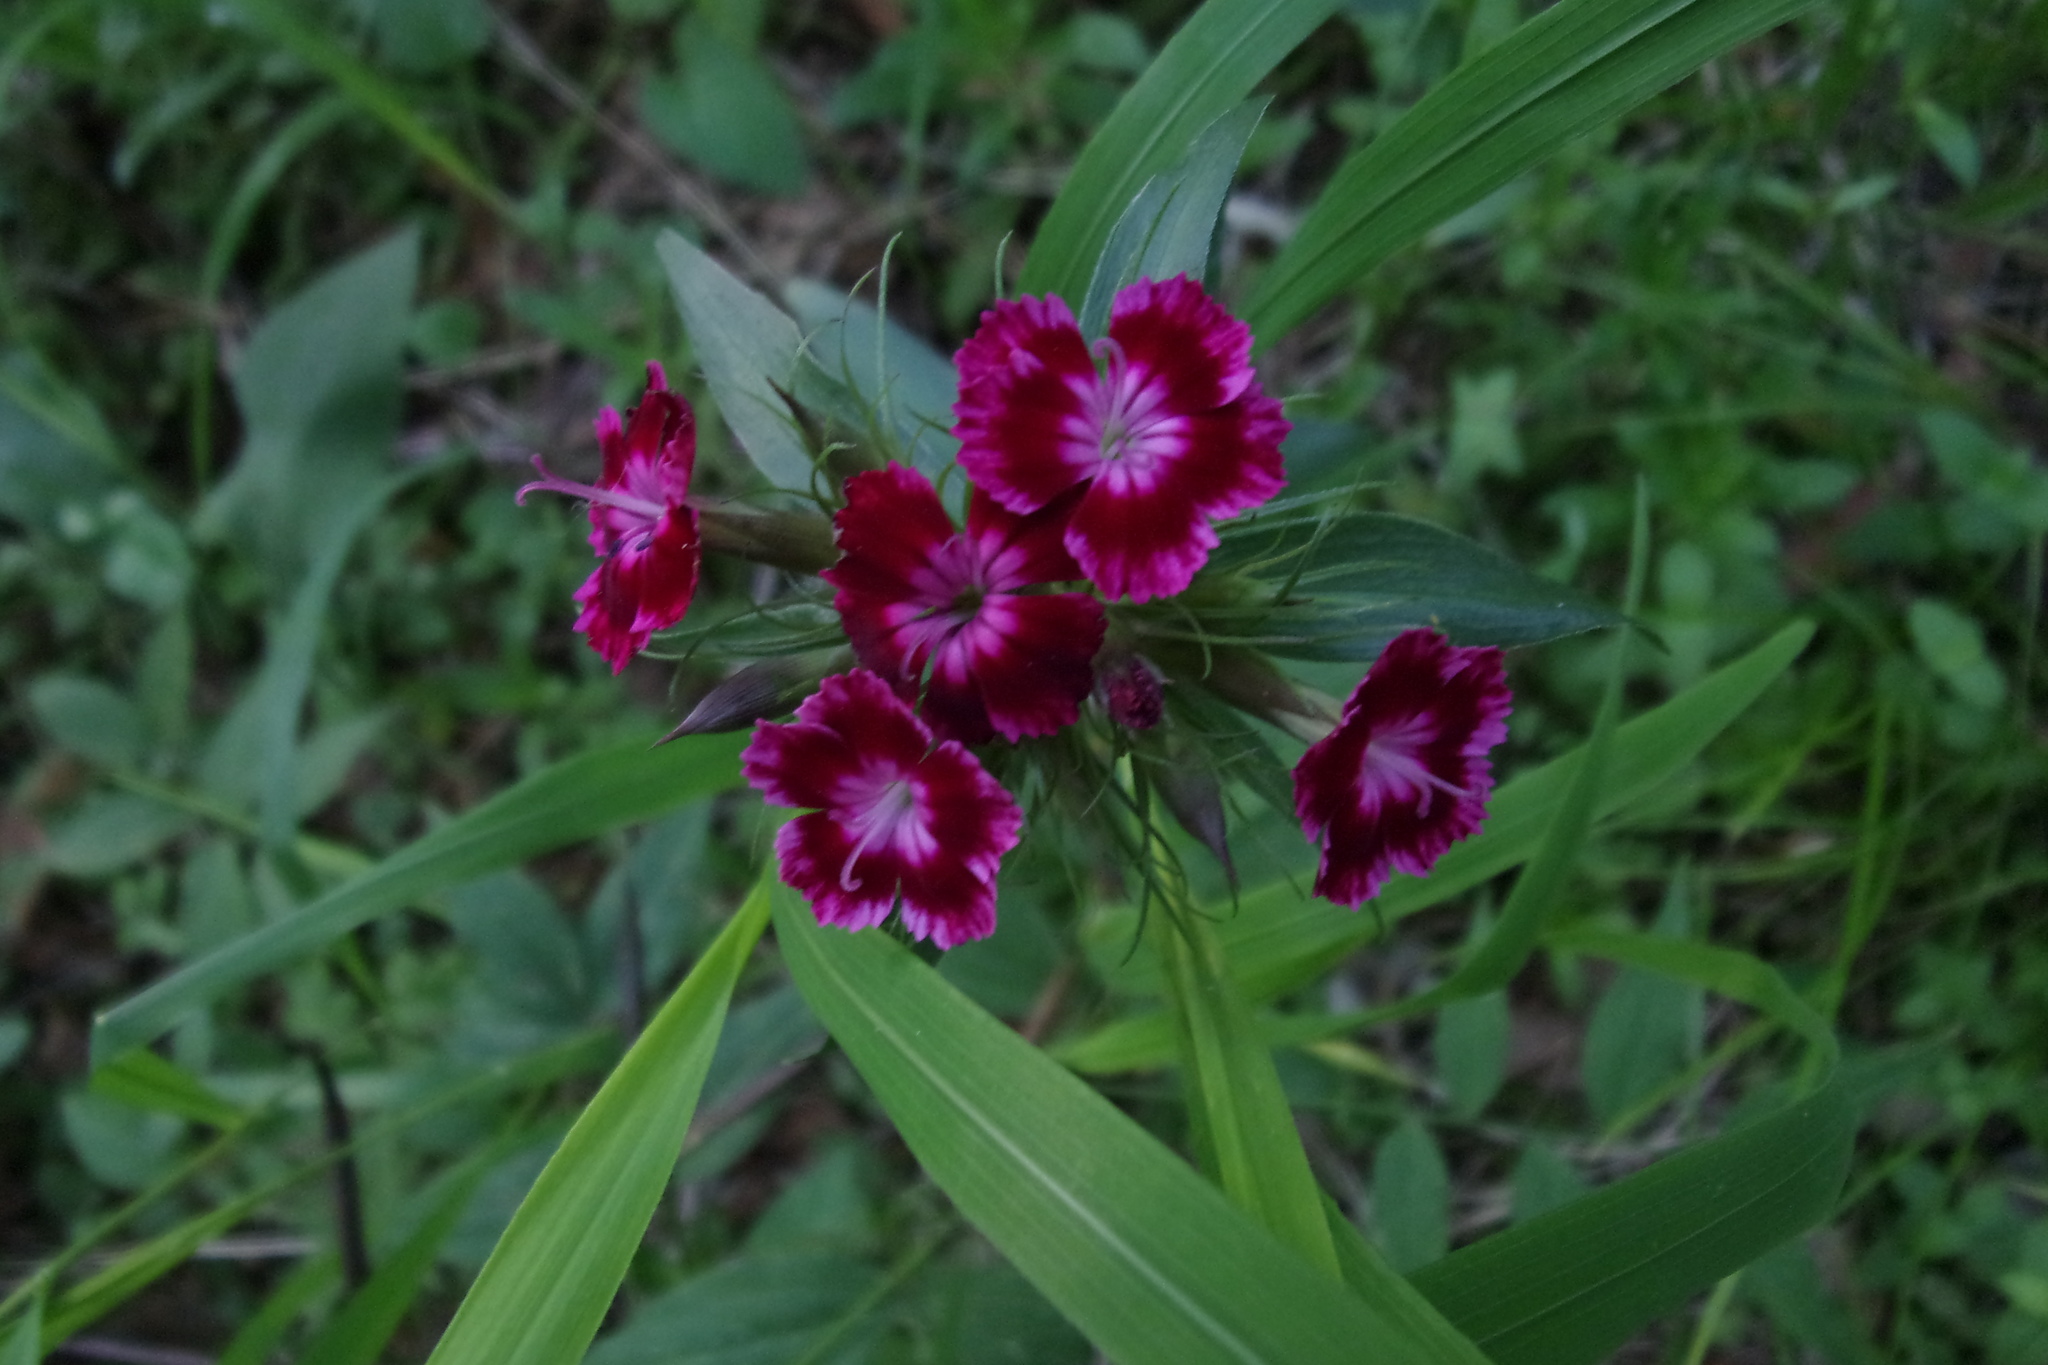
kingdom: Plantae
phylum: Tracheophyta
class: Magnoliopsida
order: Caryophyllales
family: Caryophyllaceae
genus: Dianthus
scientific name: Dianthus barbatus
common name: Sweet-william
